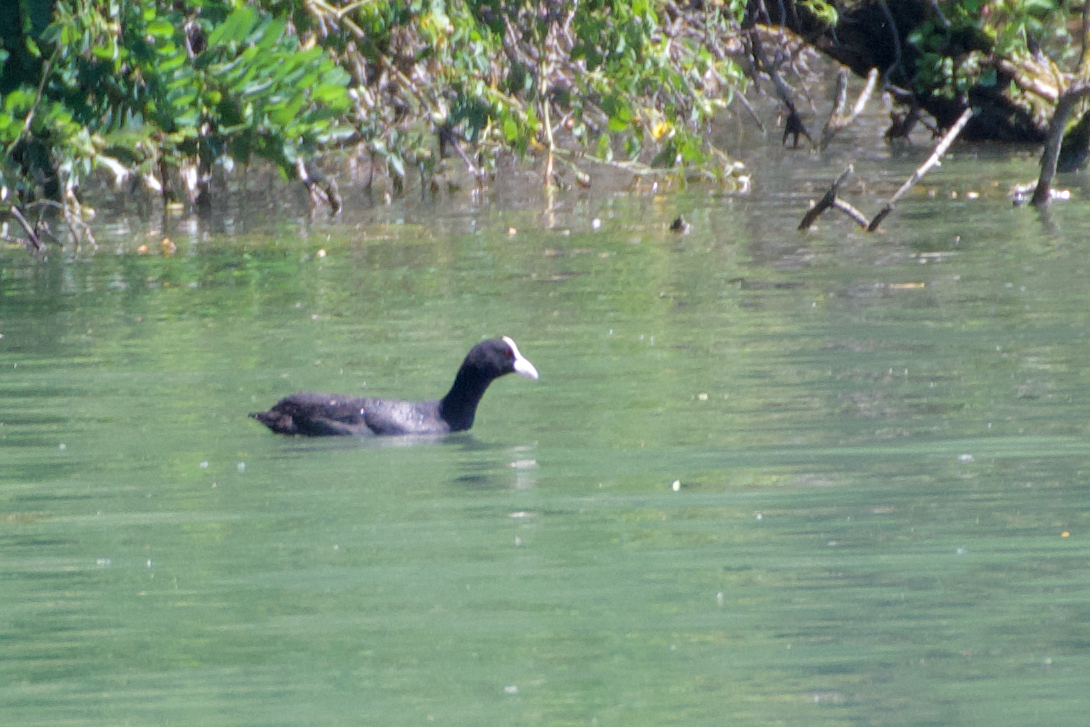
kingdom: Animalia
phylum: Chordata
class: Aves
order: Gruiformes
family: Rallidae
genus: Fulica
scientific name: Fulica atra
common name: Eurasian coot
